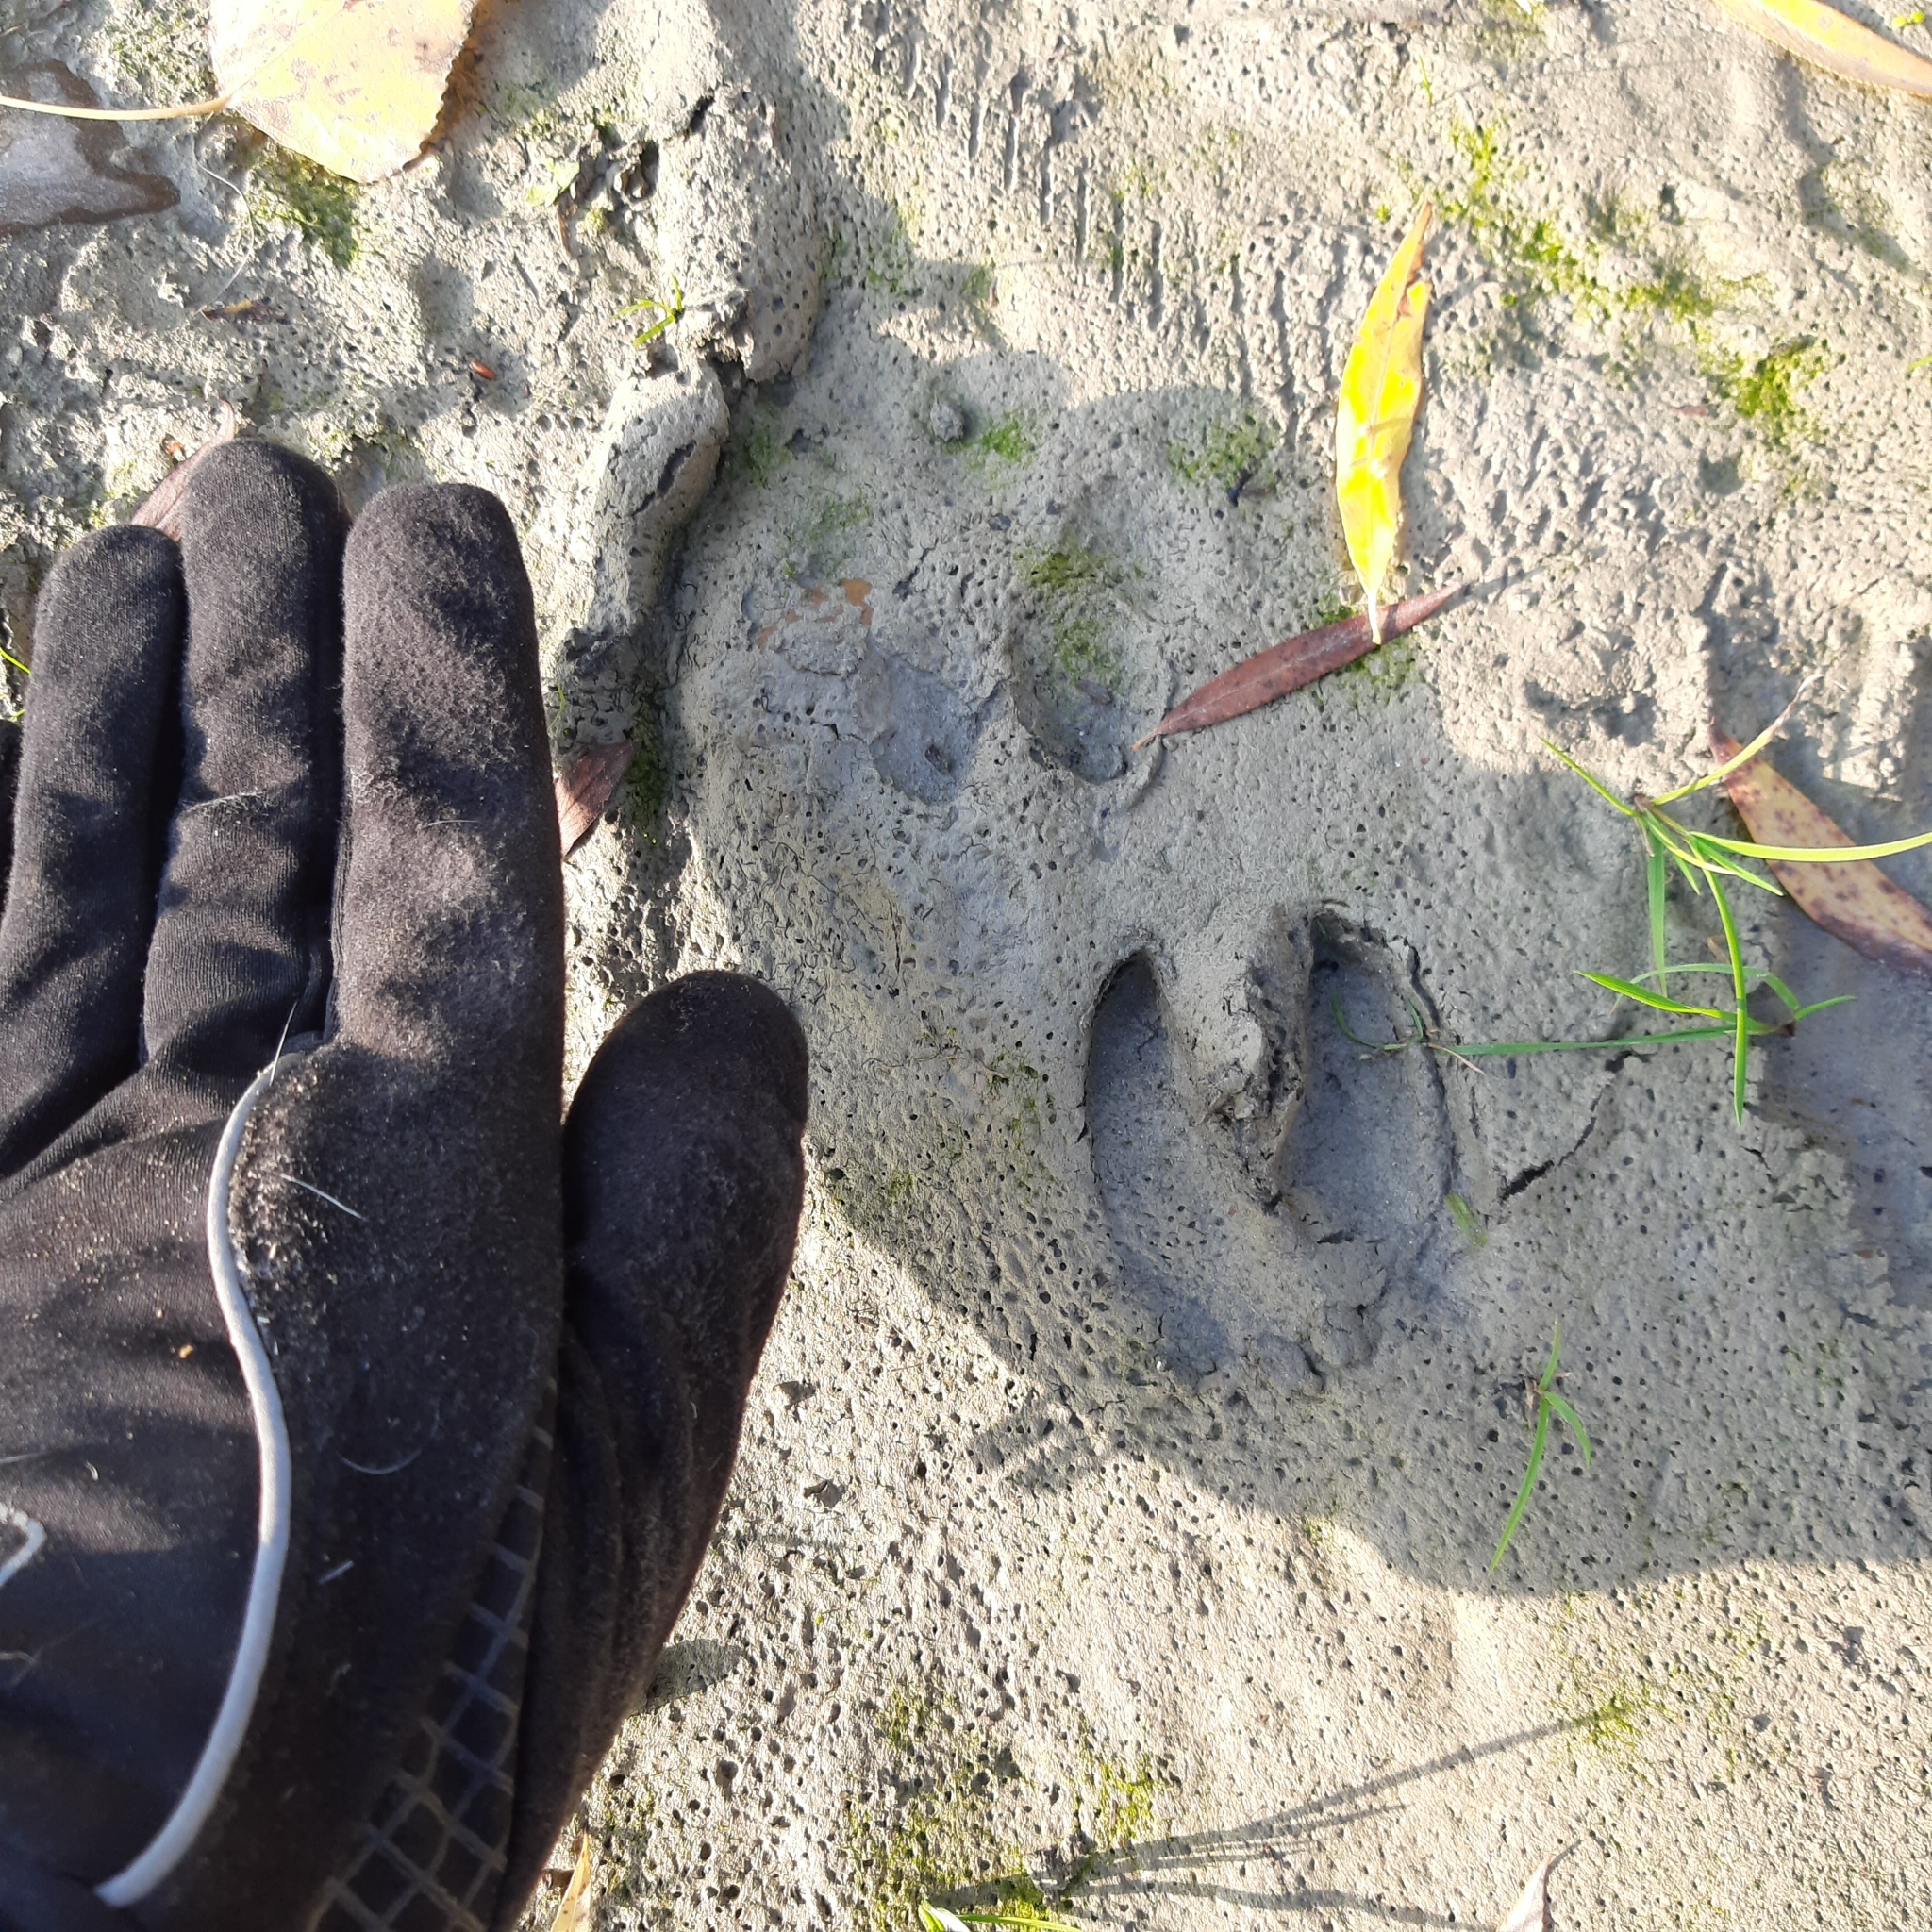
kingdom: Animalia
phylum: Chordata
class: Mammalia
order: Artiodactyla
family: Suidae
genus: Sus
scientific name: Sus scrofa
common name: Wild boar
